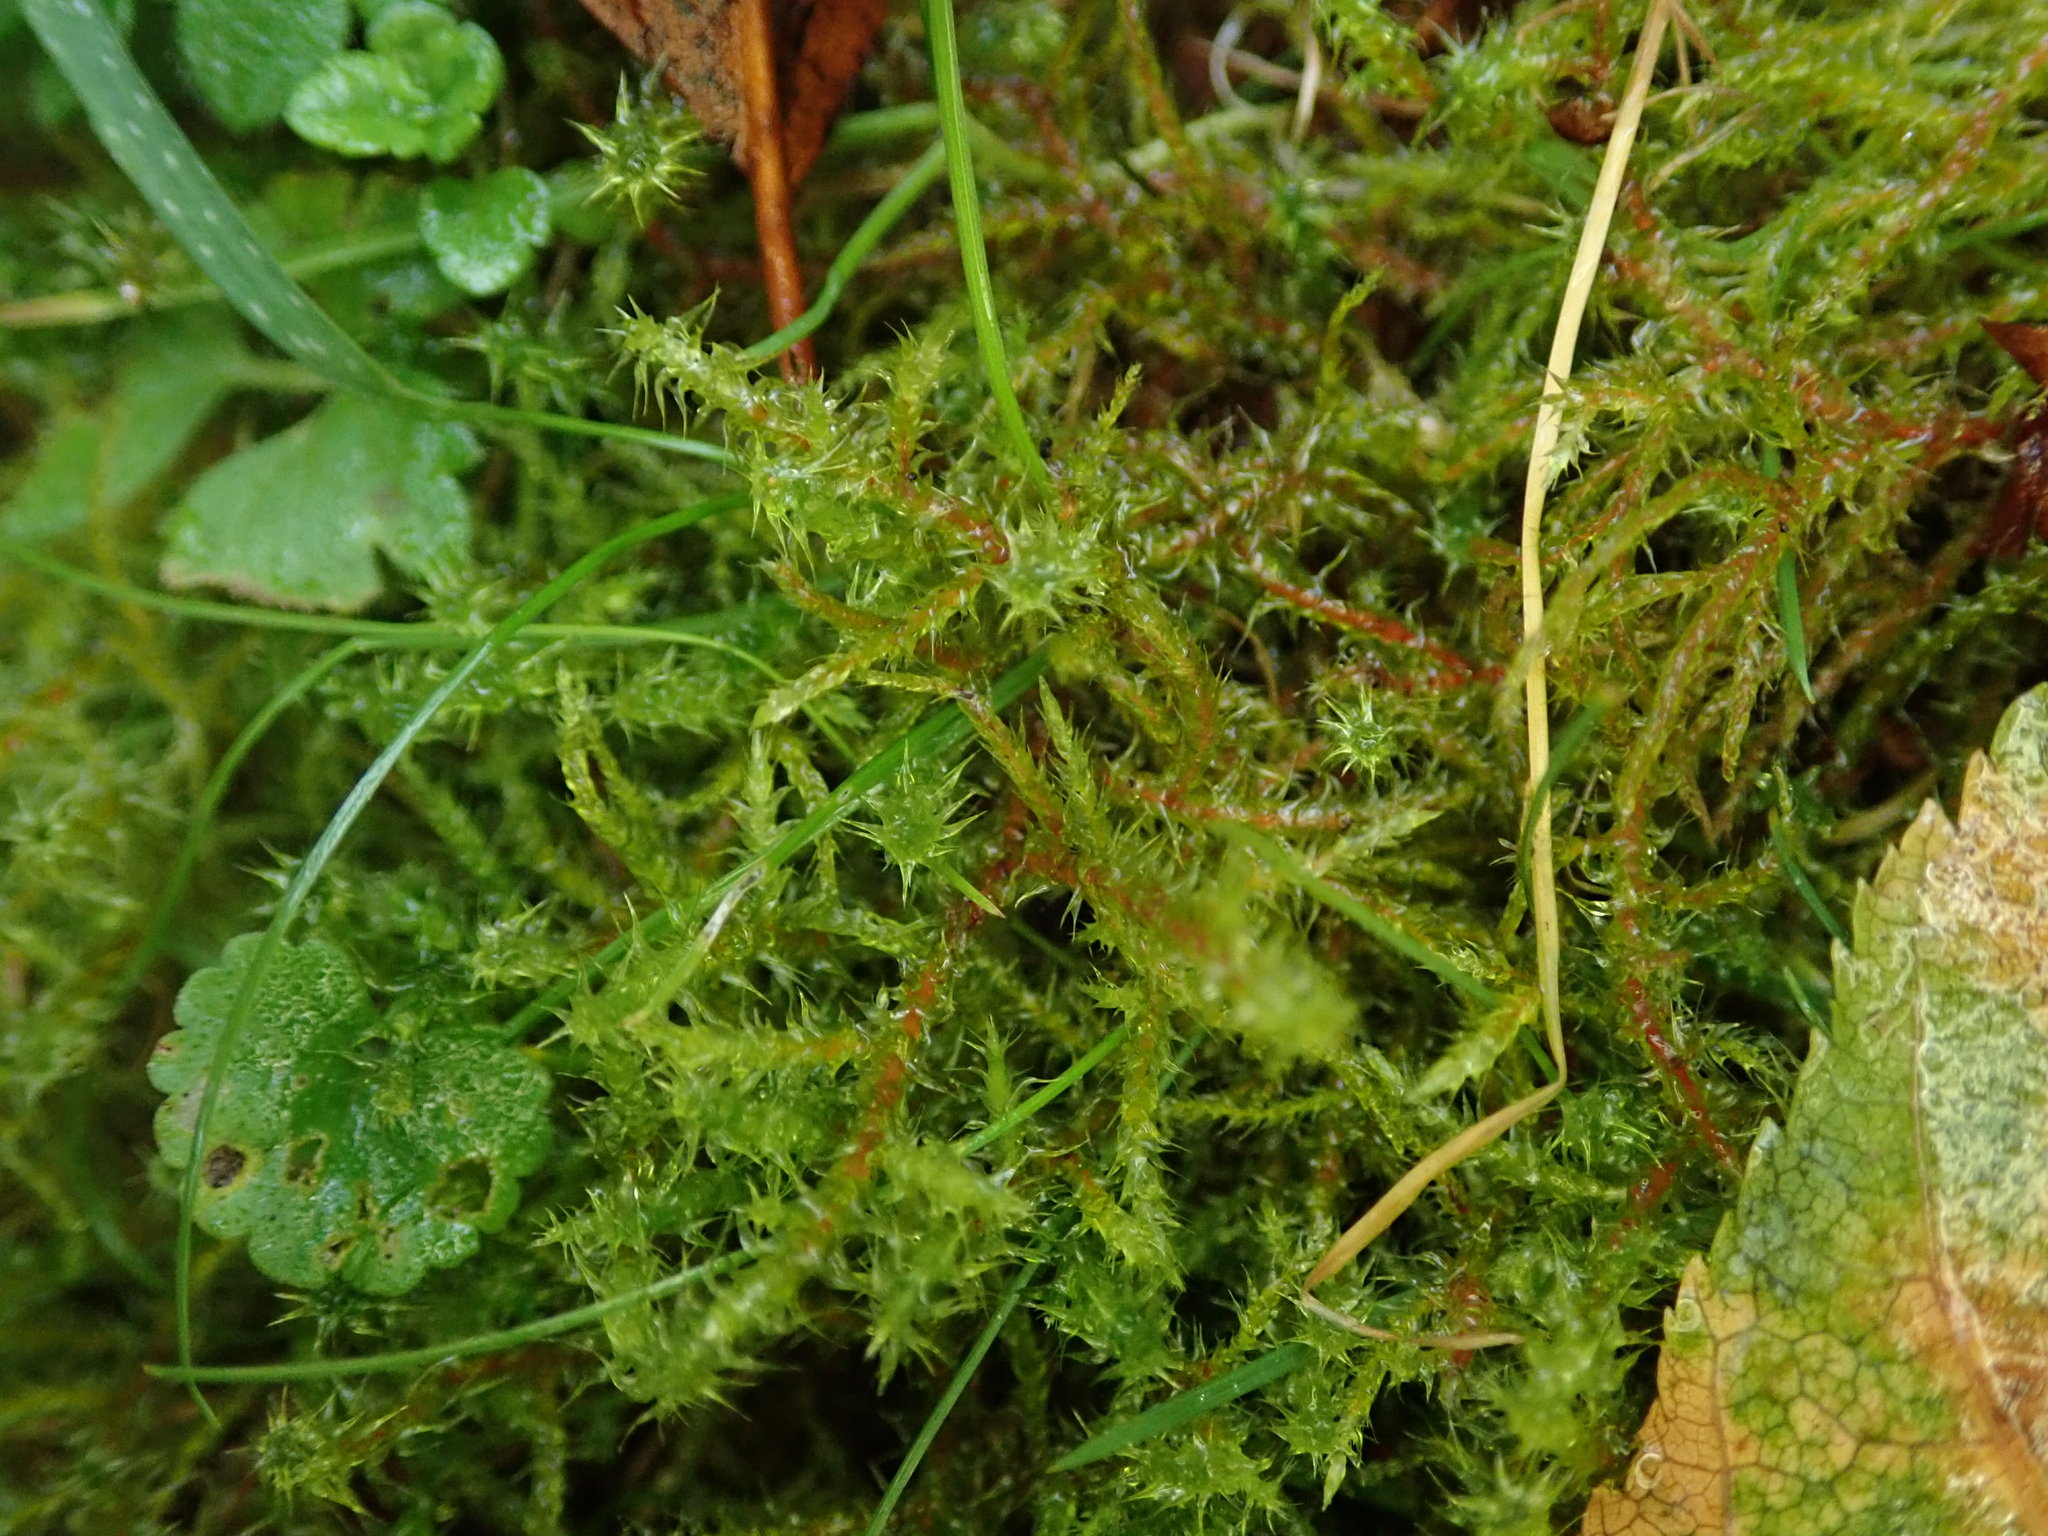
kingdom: Plantae
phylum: Bryophyta
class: Bryopsida
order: Hypnales
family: Hylocomiaceae
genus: Rhytidiadelphus
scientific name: Rhytidiadelphus squarrosus
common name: Springy turf-moss
